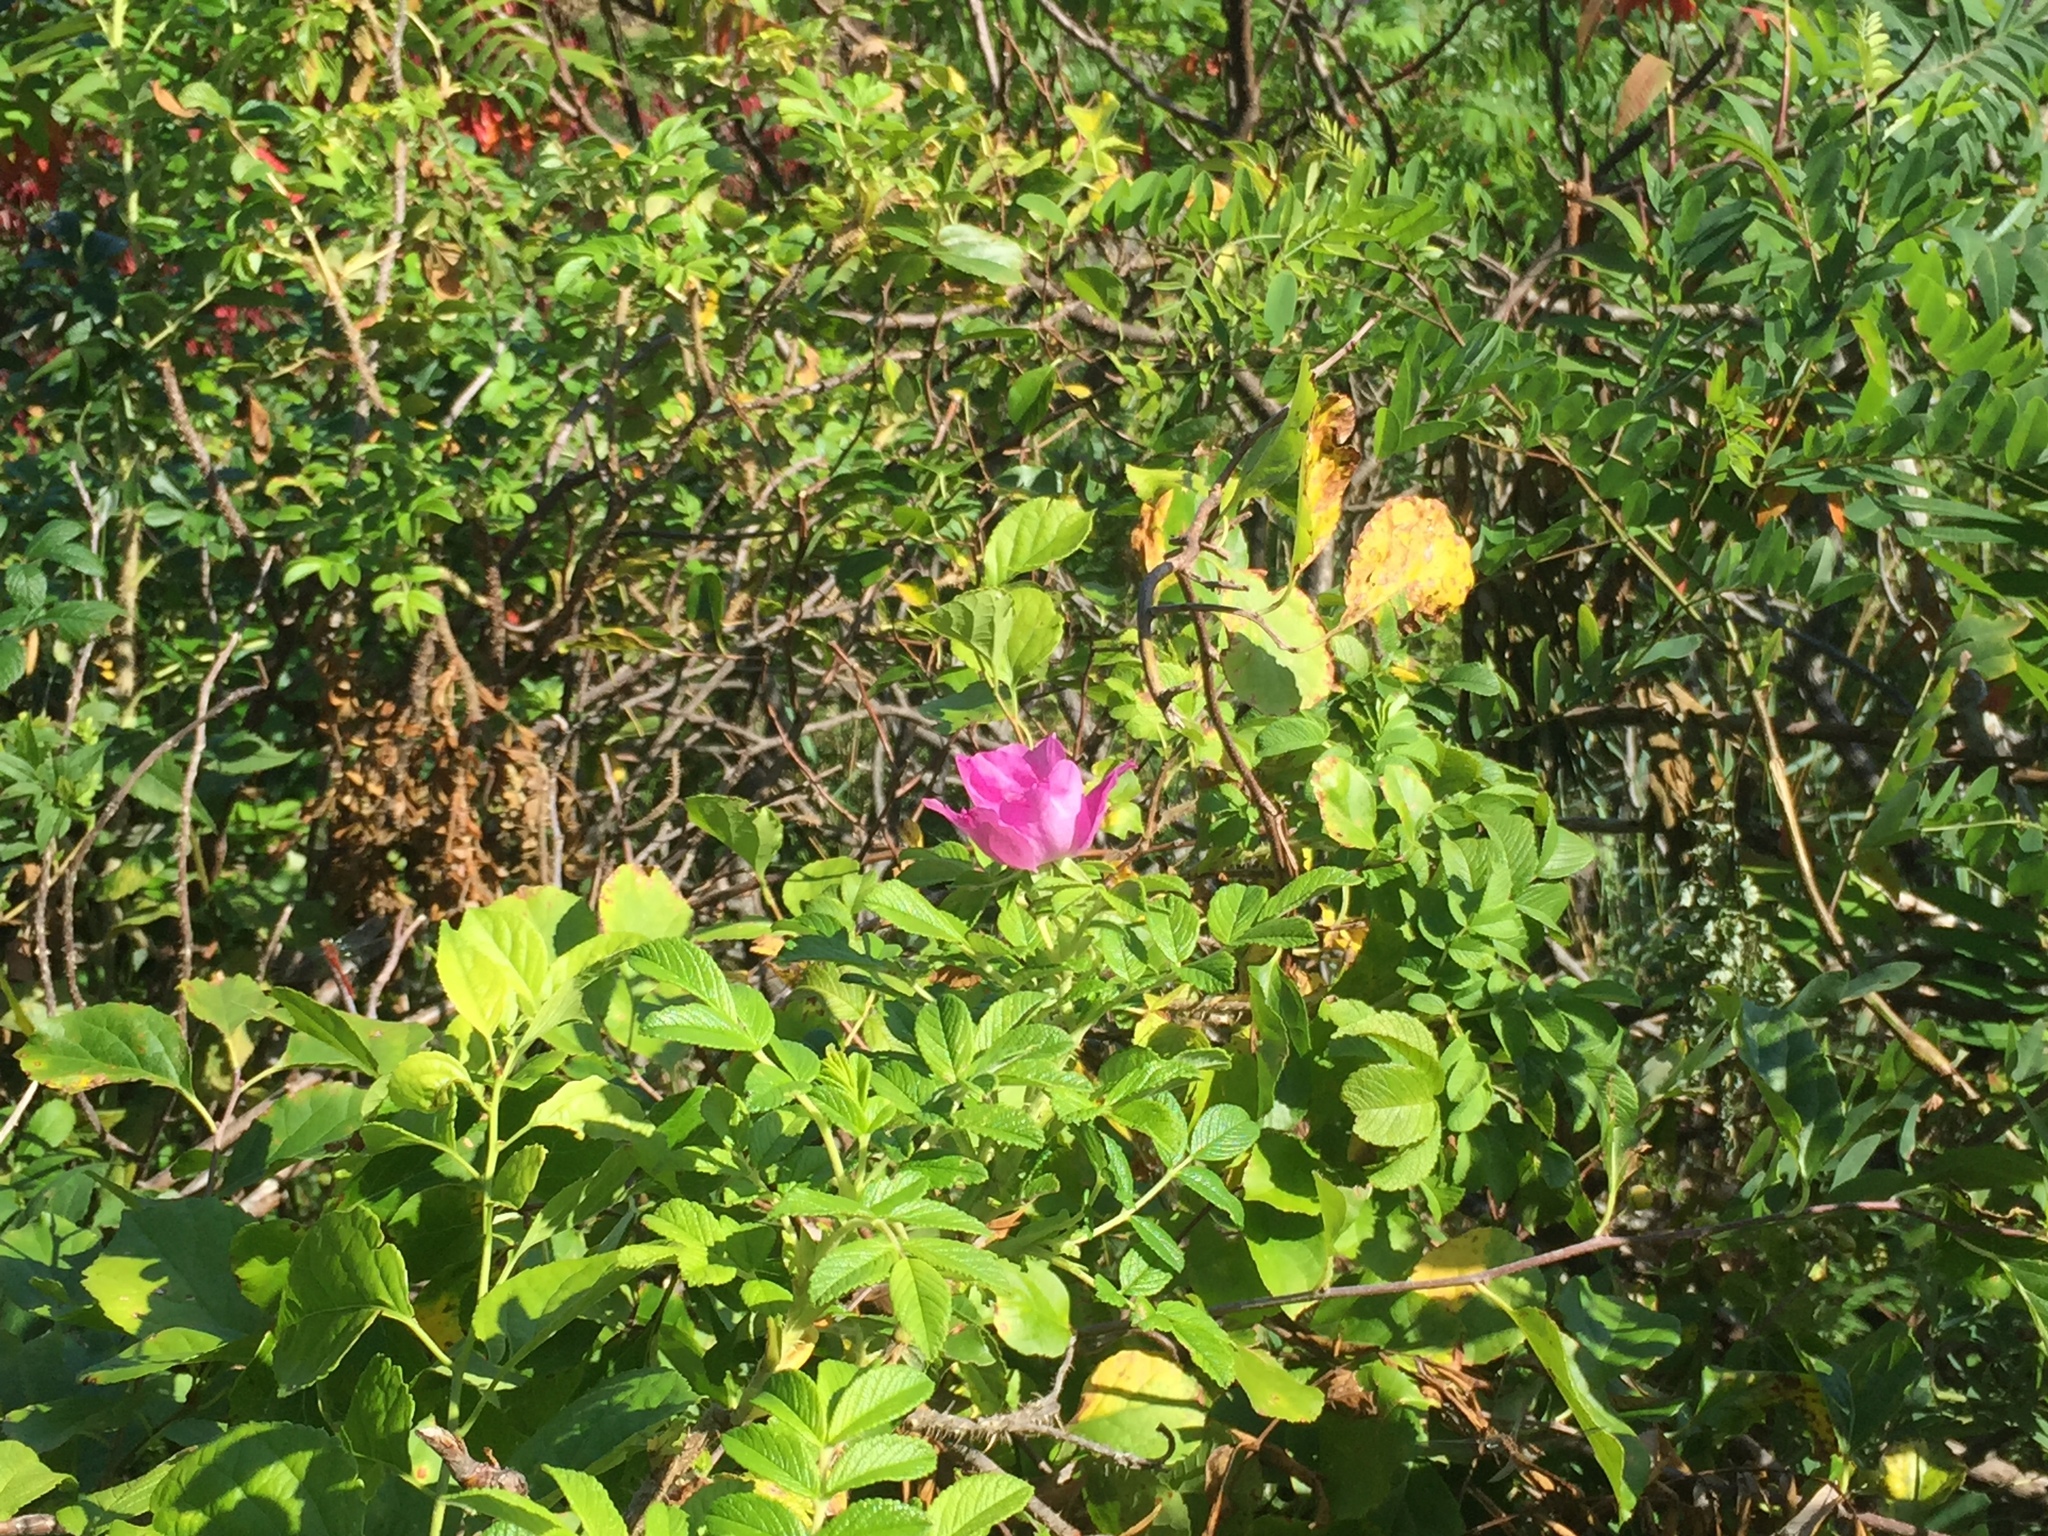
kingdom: Plantae
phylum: Tracheophyta
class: Magnoliopsida
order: Rosales
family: Rosaceae
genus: Rosa
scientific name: Rosa rugosa
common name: Japanese rose
